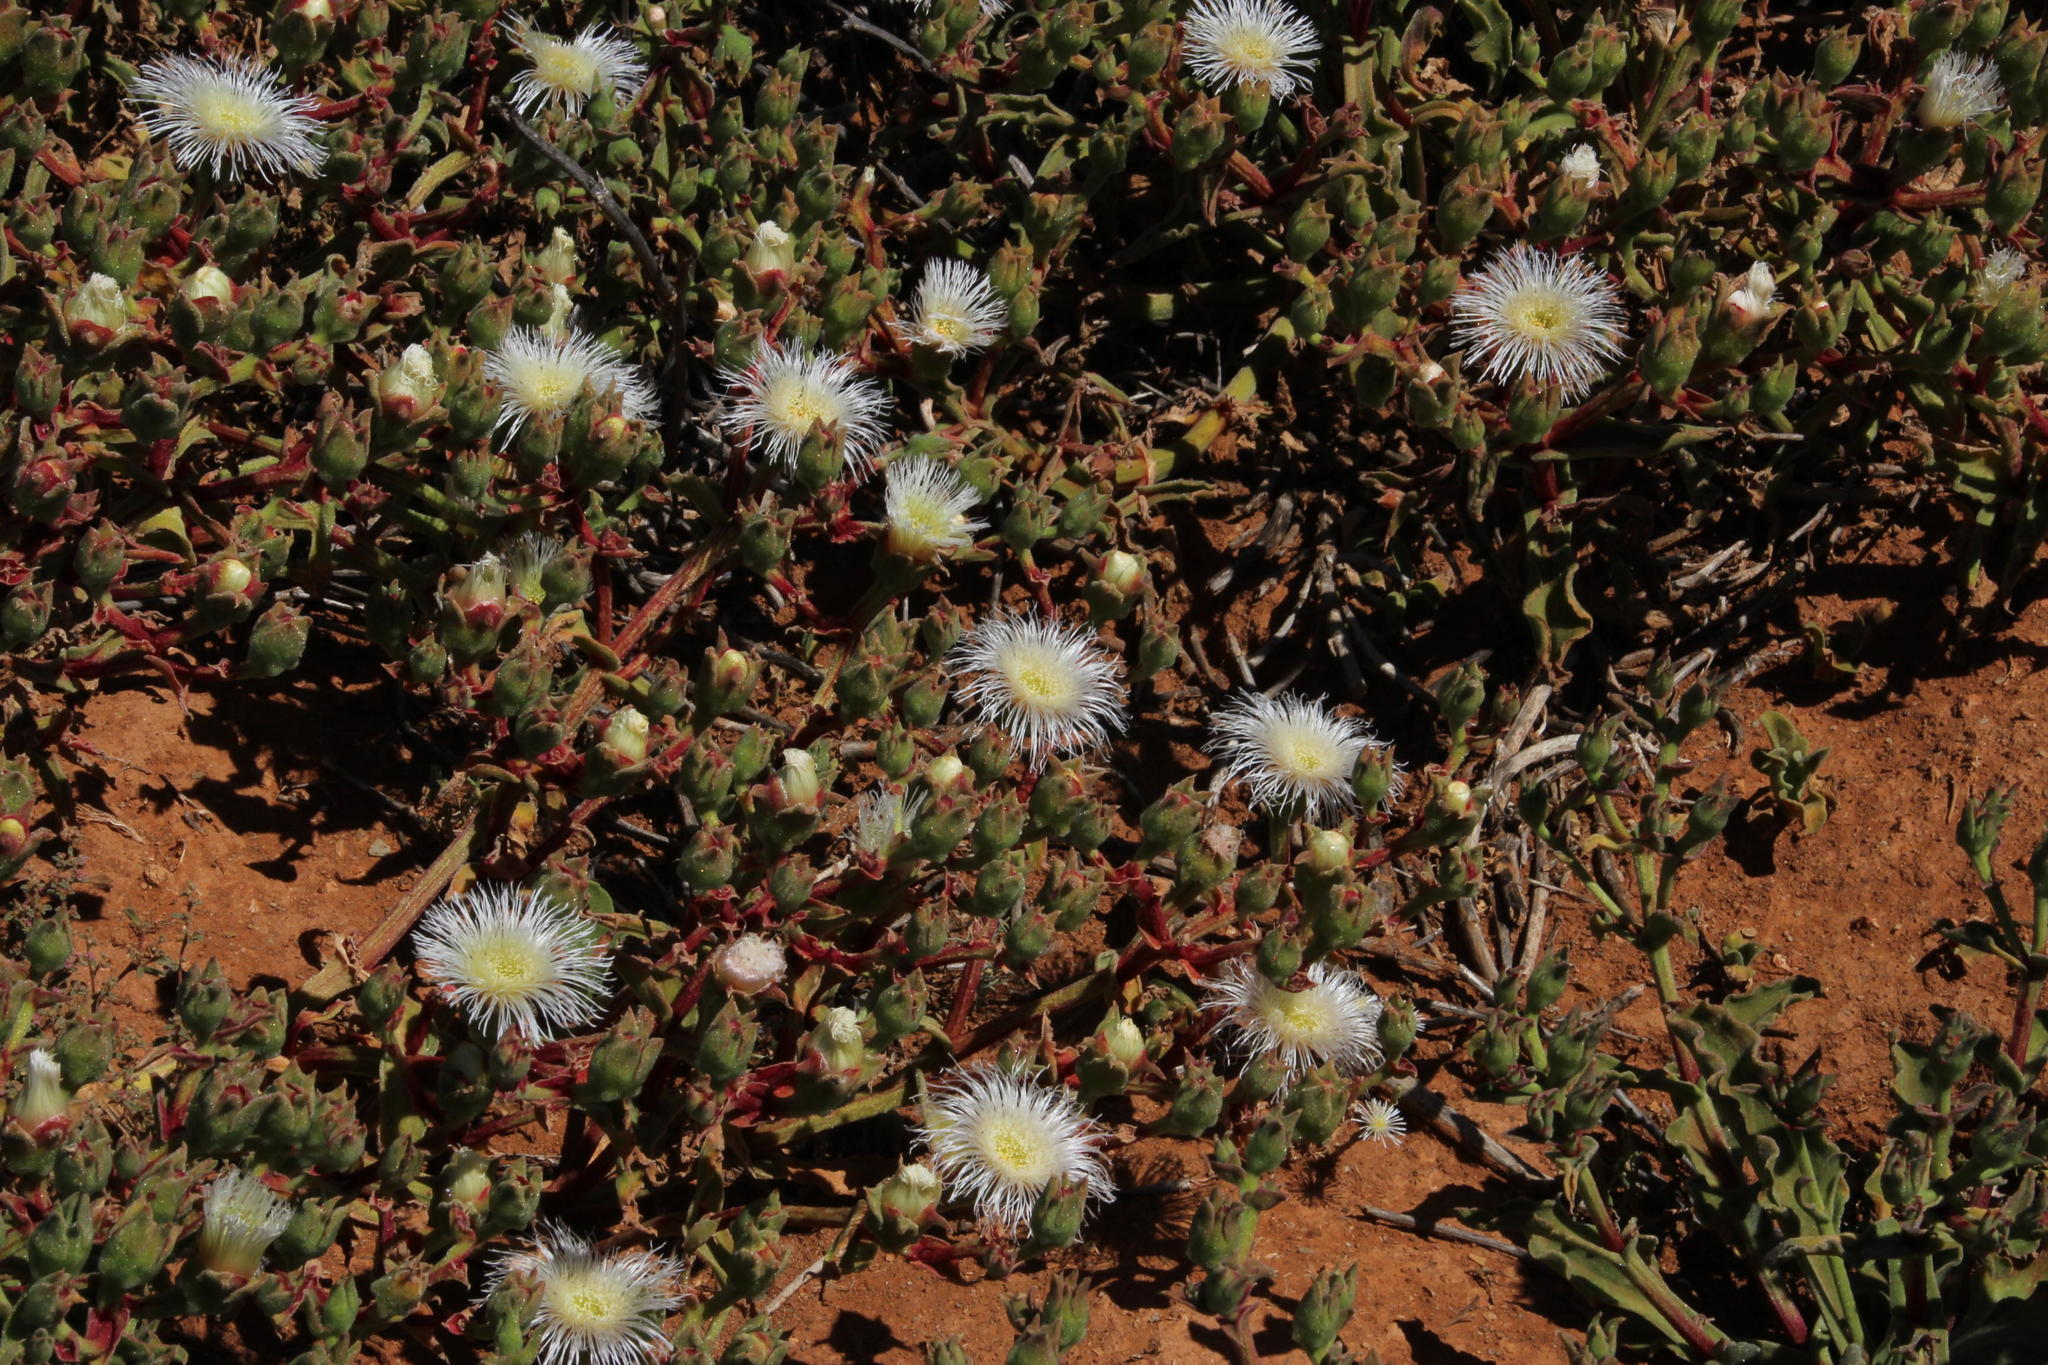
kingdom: Plantae
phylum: Tracheophyta
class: Magnoliopsida
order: Caryophyllales
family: Aizoaceae
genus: Mesembryanthemum
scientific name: Mesembryanthemum guerichianum
